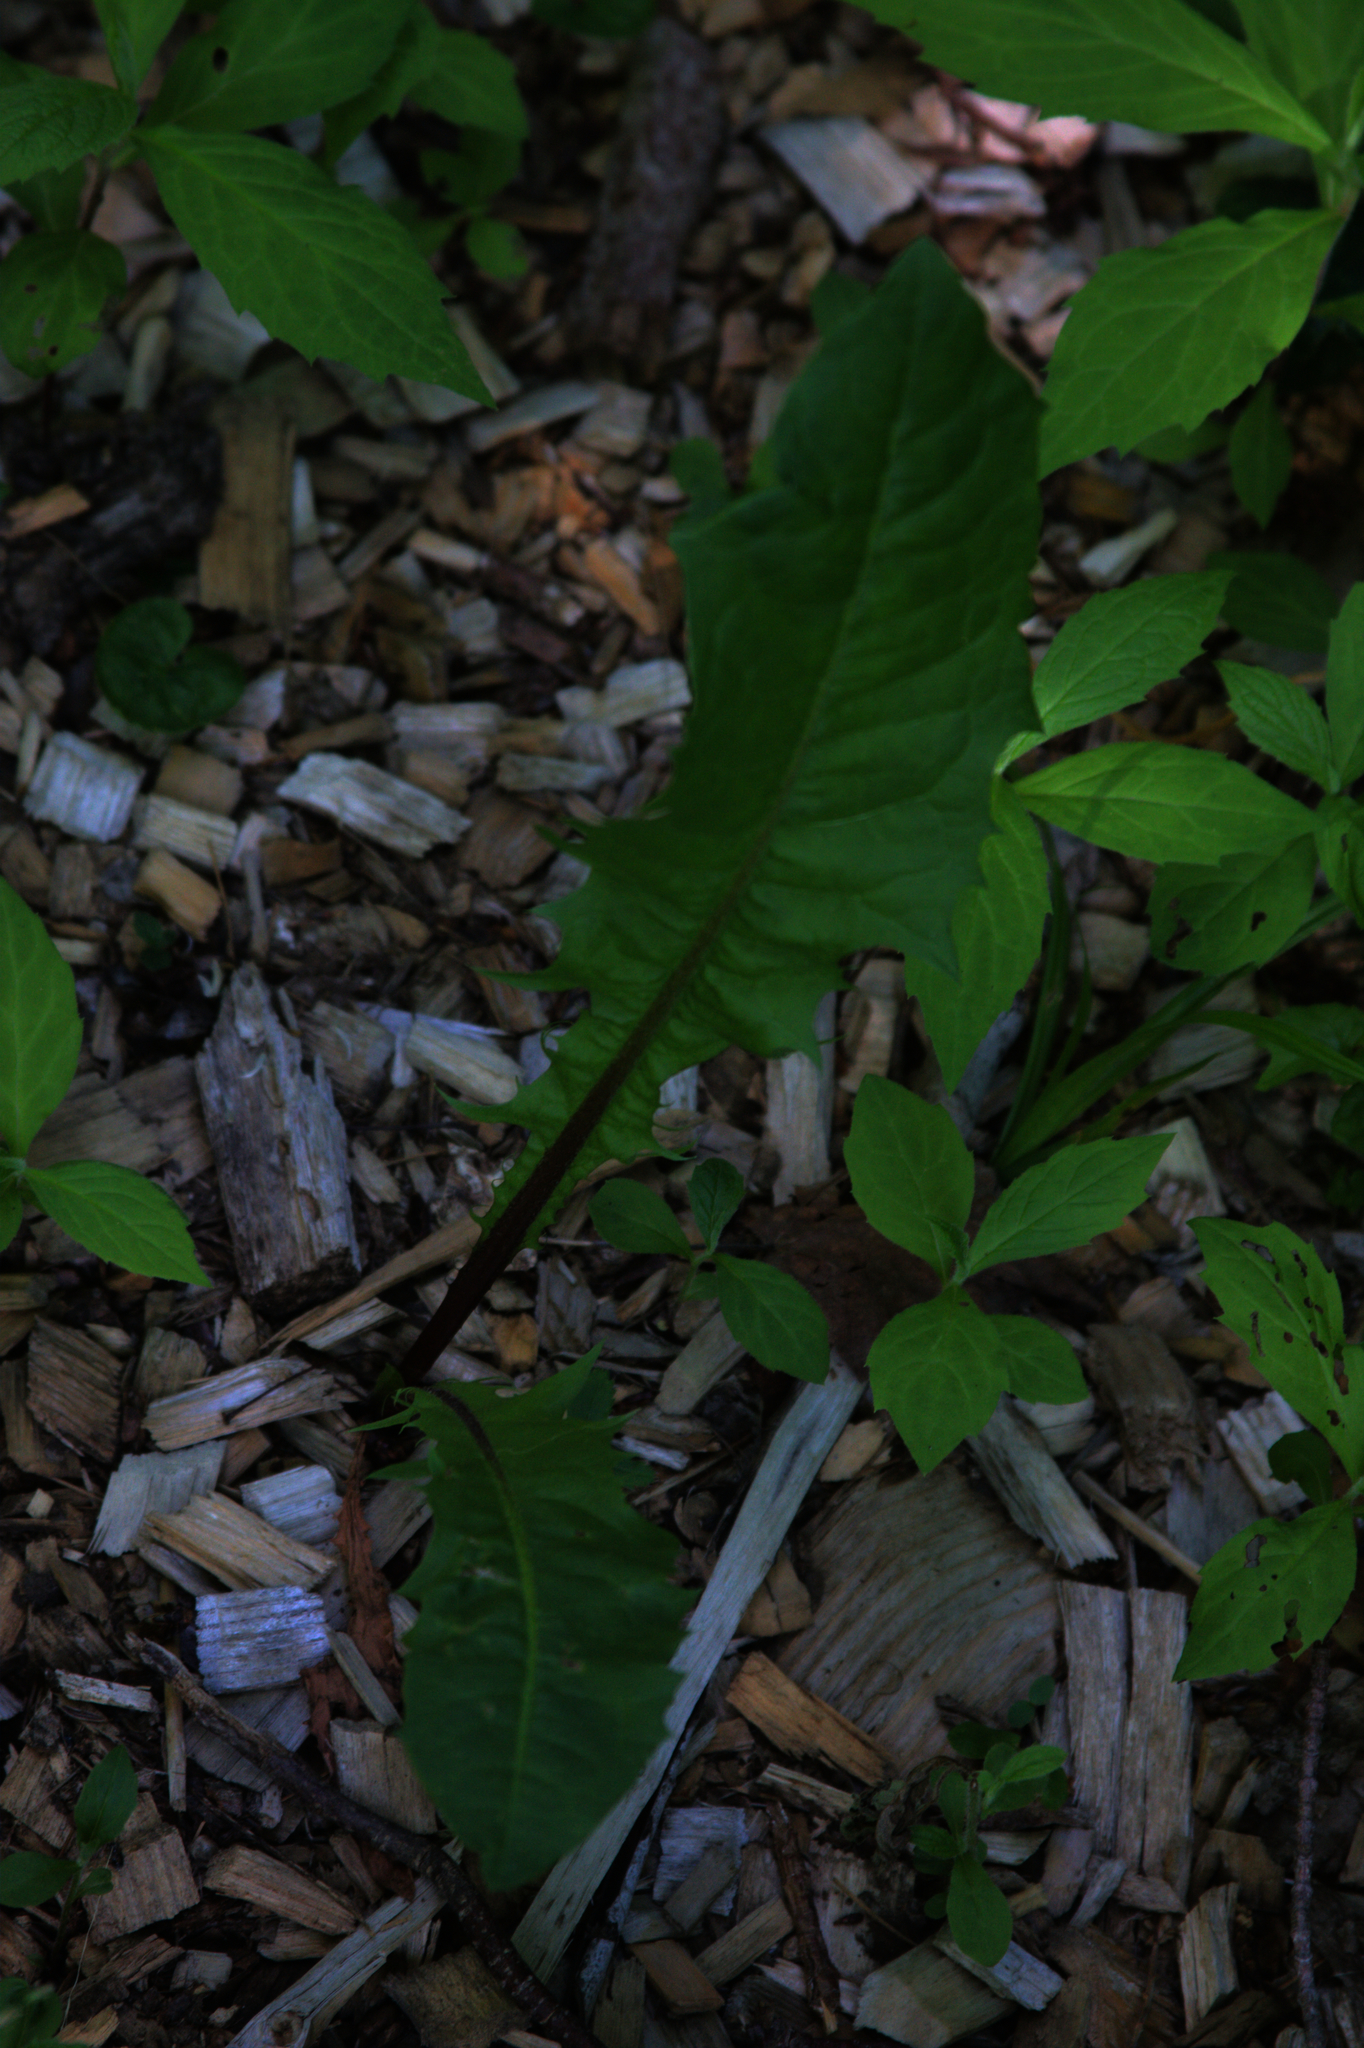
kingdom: Plantae
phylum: Tracheophyta
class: Magnoliopsida
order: Asterales
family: Asteraceae
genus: Taraxacum
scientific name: Taraxacum officinale
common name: Common dandelion
